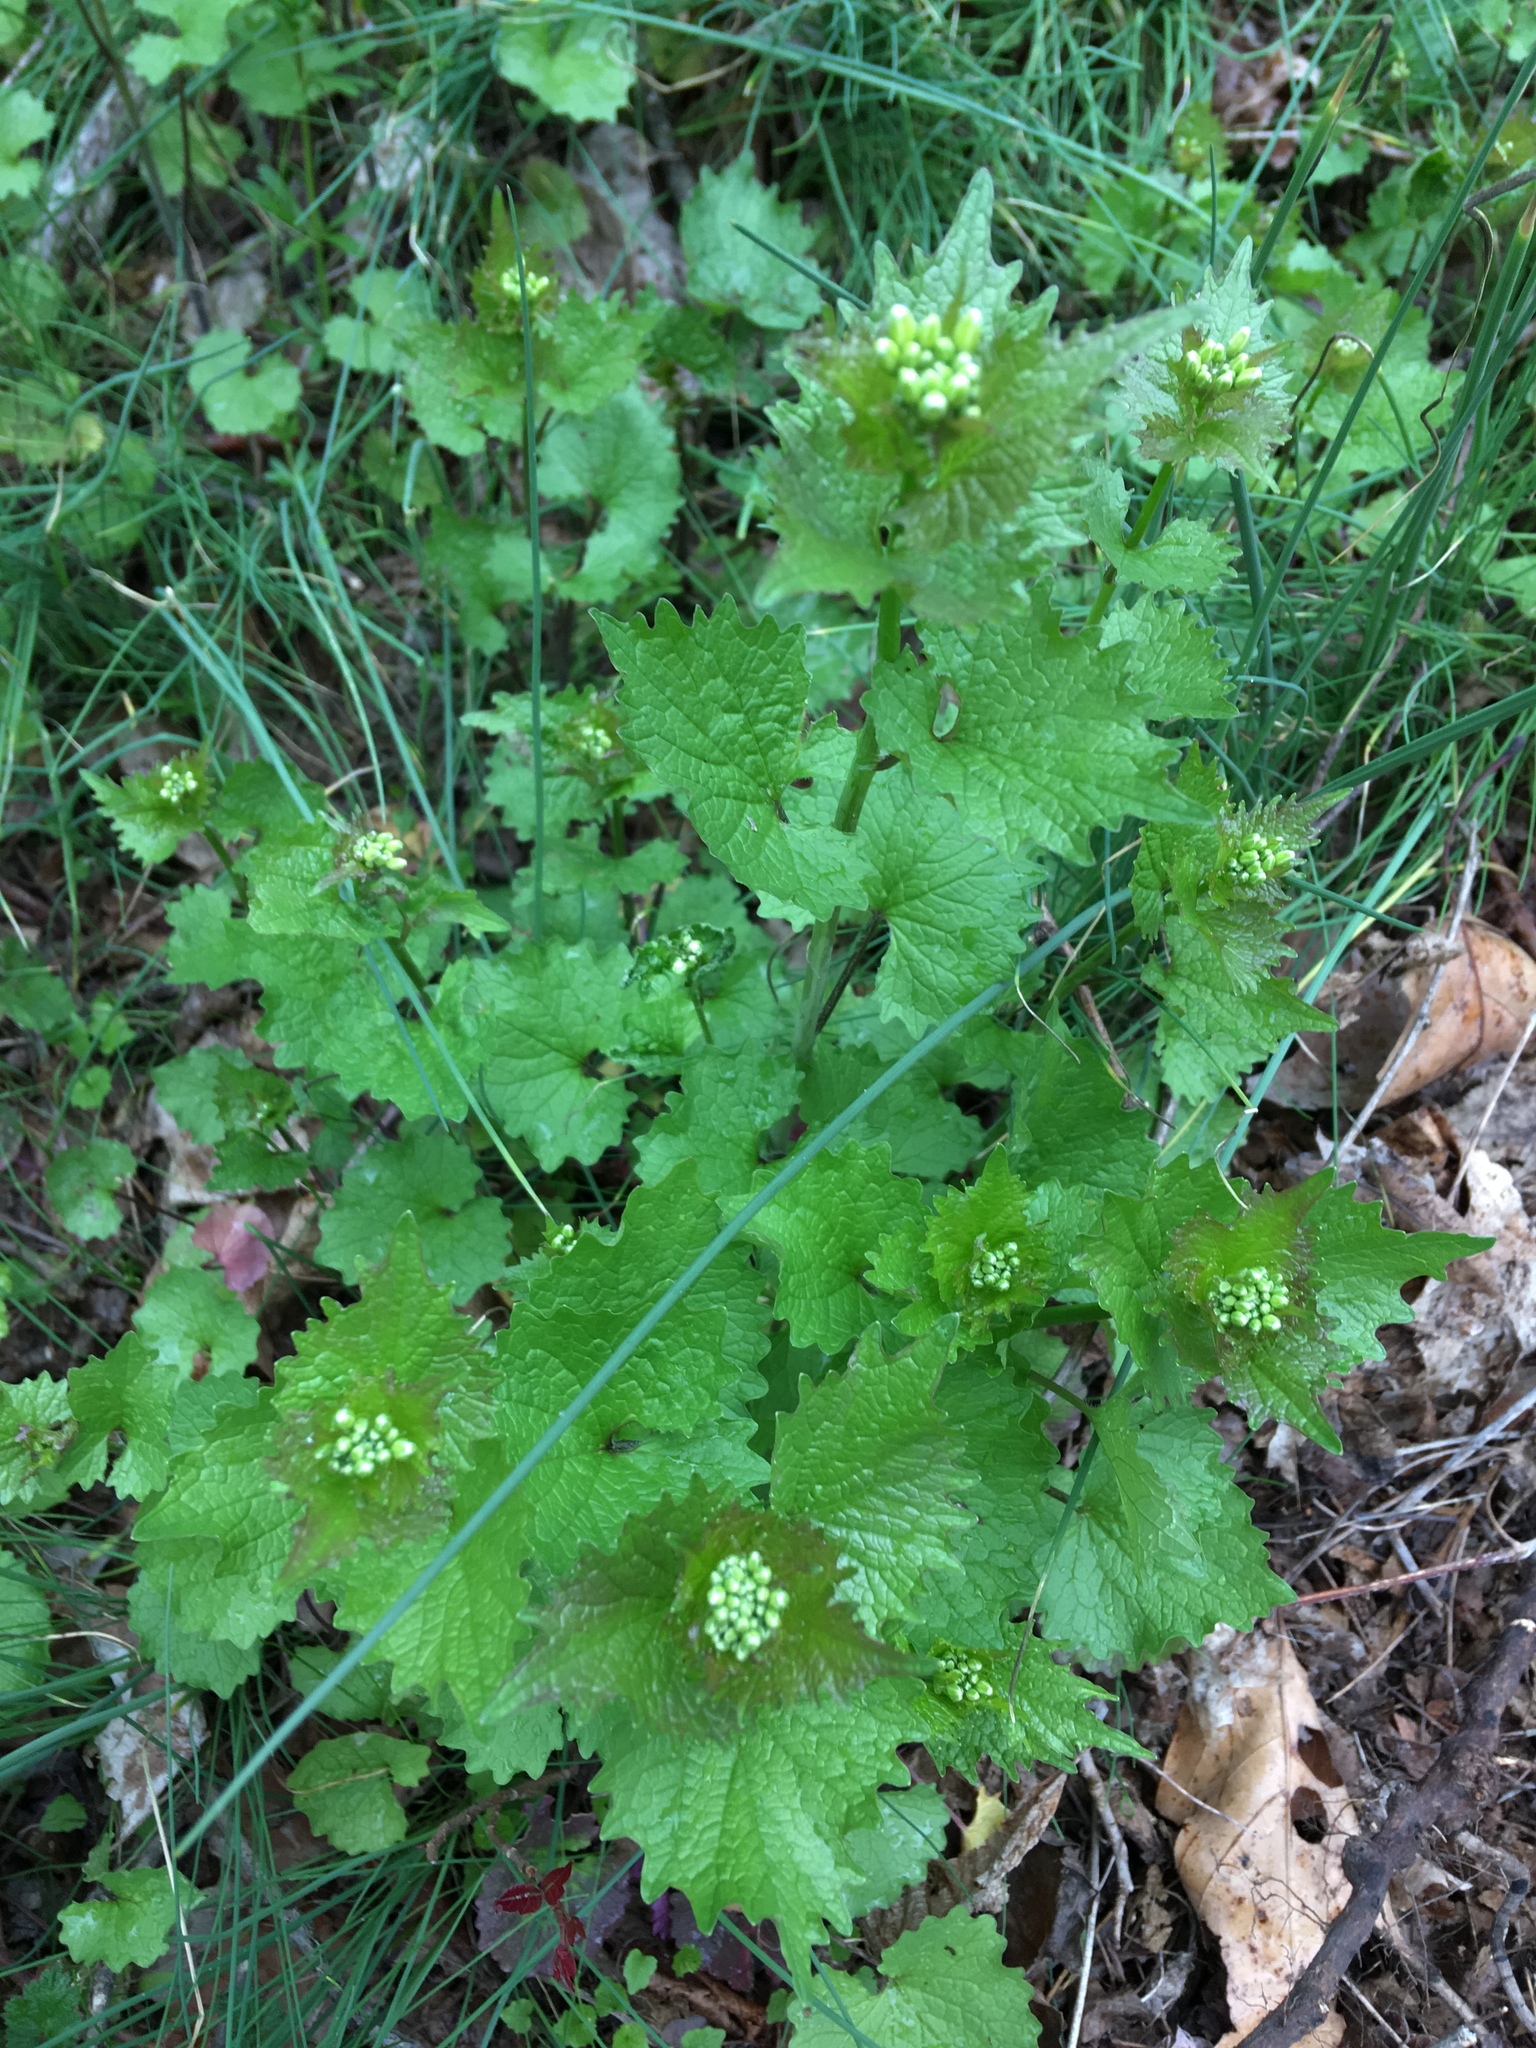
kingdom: Plantae
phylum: Tracheophyta
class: Magnoliopsida
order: Brassicales
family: Brassicaceae
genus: Alliaria
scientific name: Alliaria petiolata
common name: Garlic mustard
